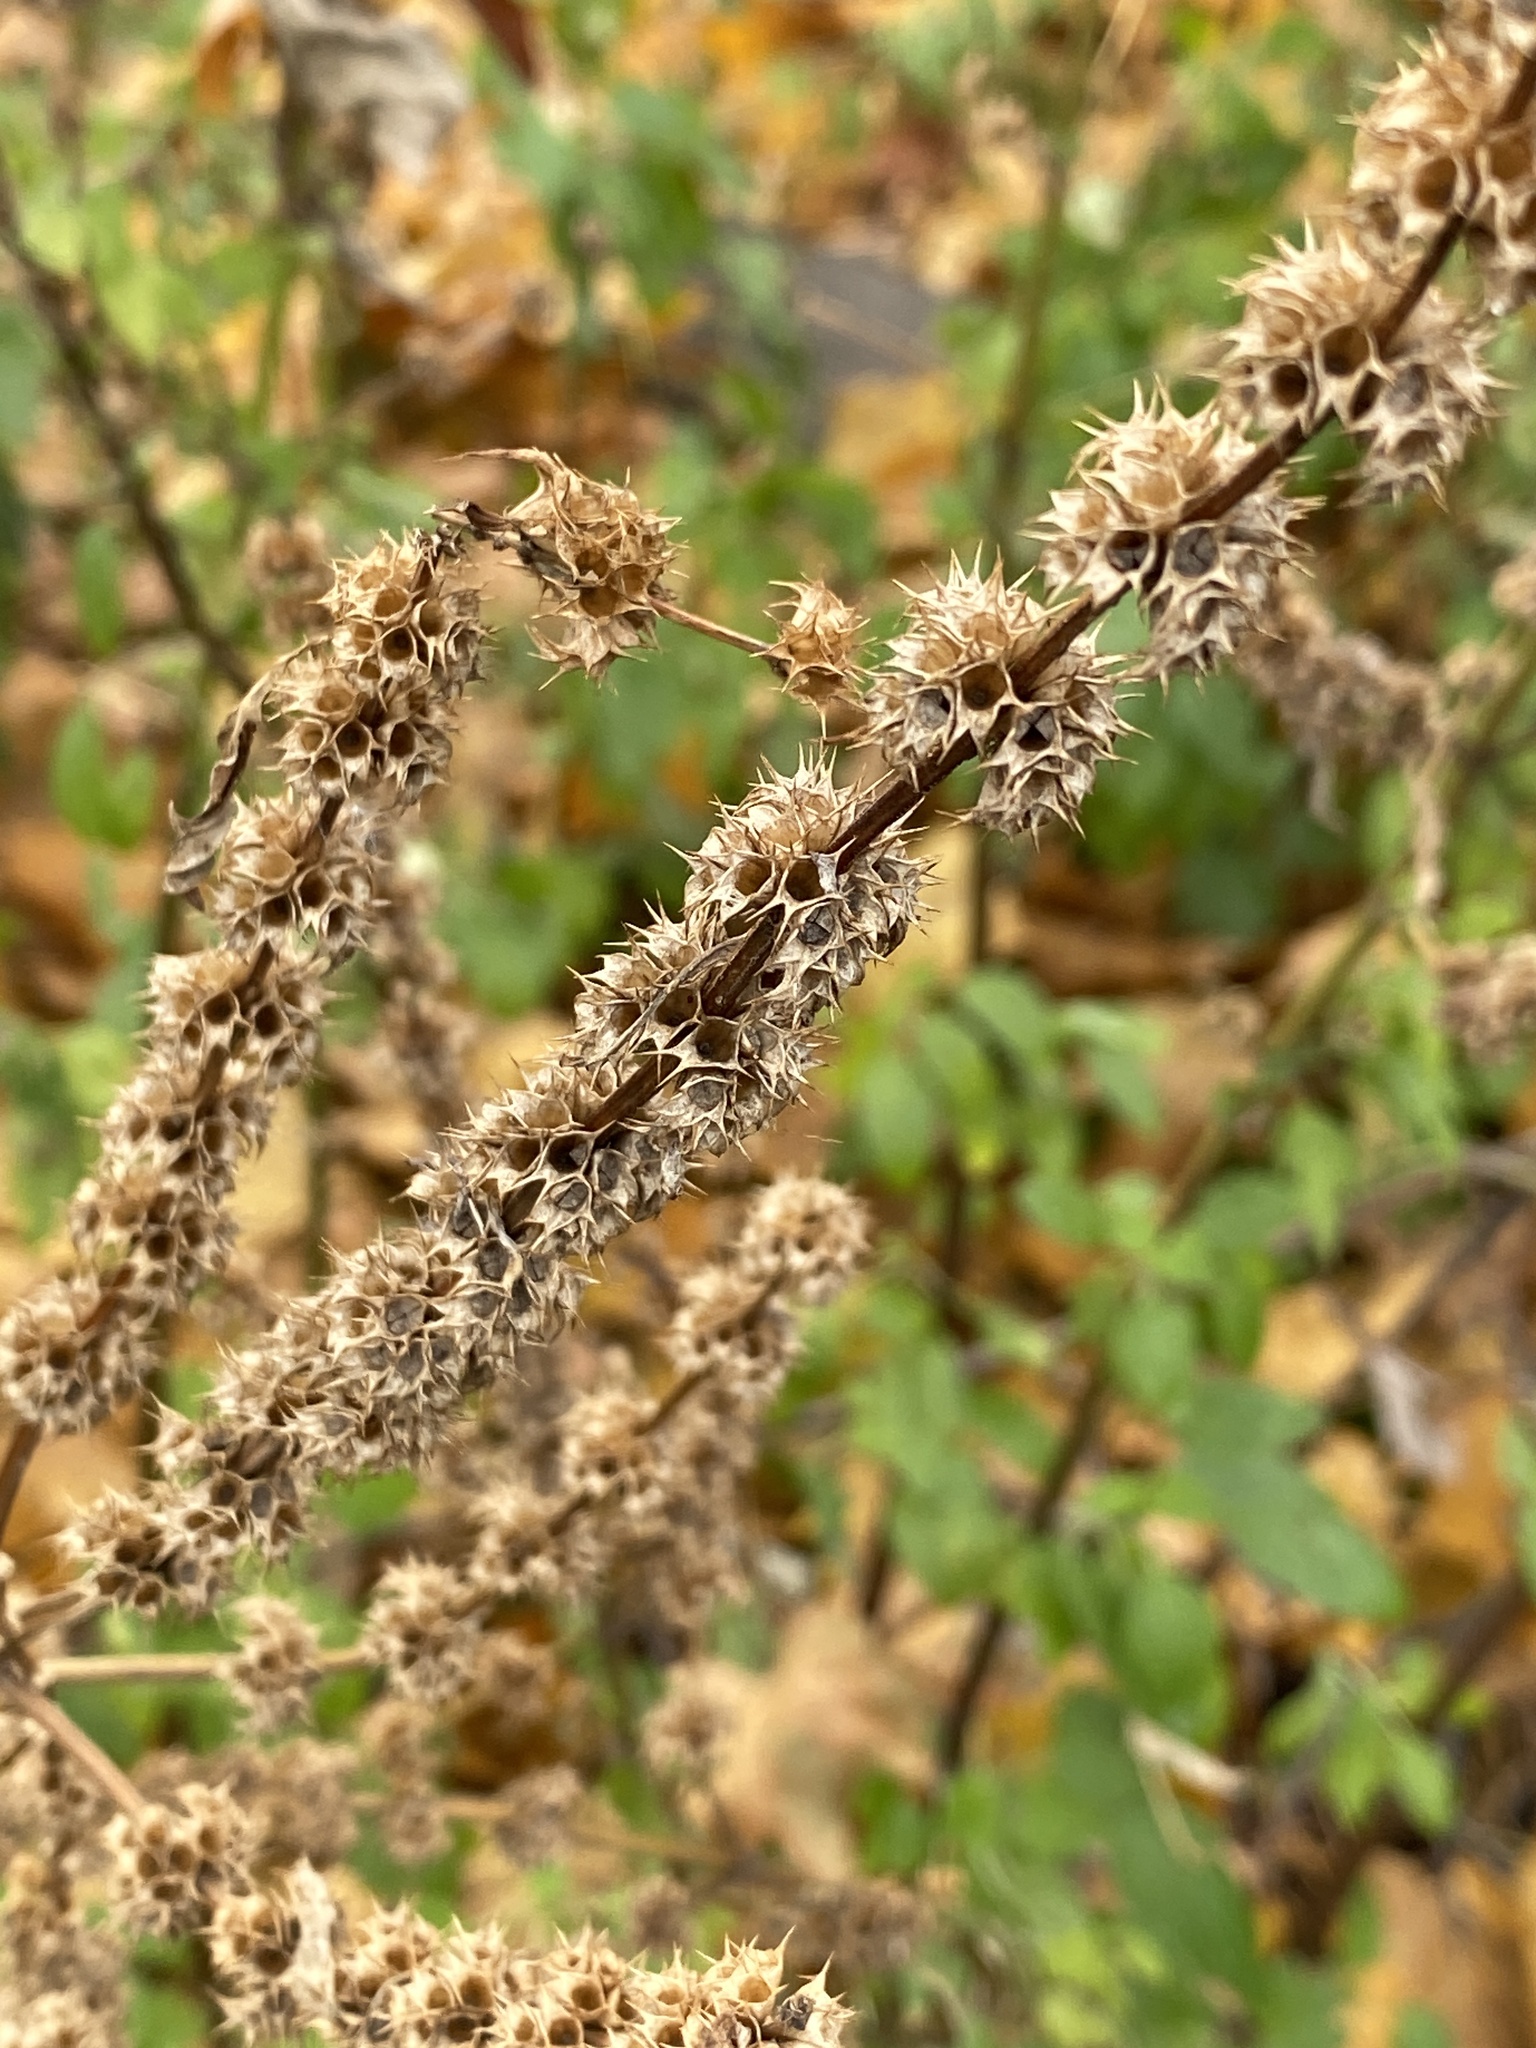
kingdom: Plantae
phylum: Tracheophyta
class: Magnoliopsida
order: Lamiales
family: Lamiaceae
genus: Leonurus
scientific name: Leonurus cardiaca
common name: Motherwort
